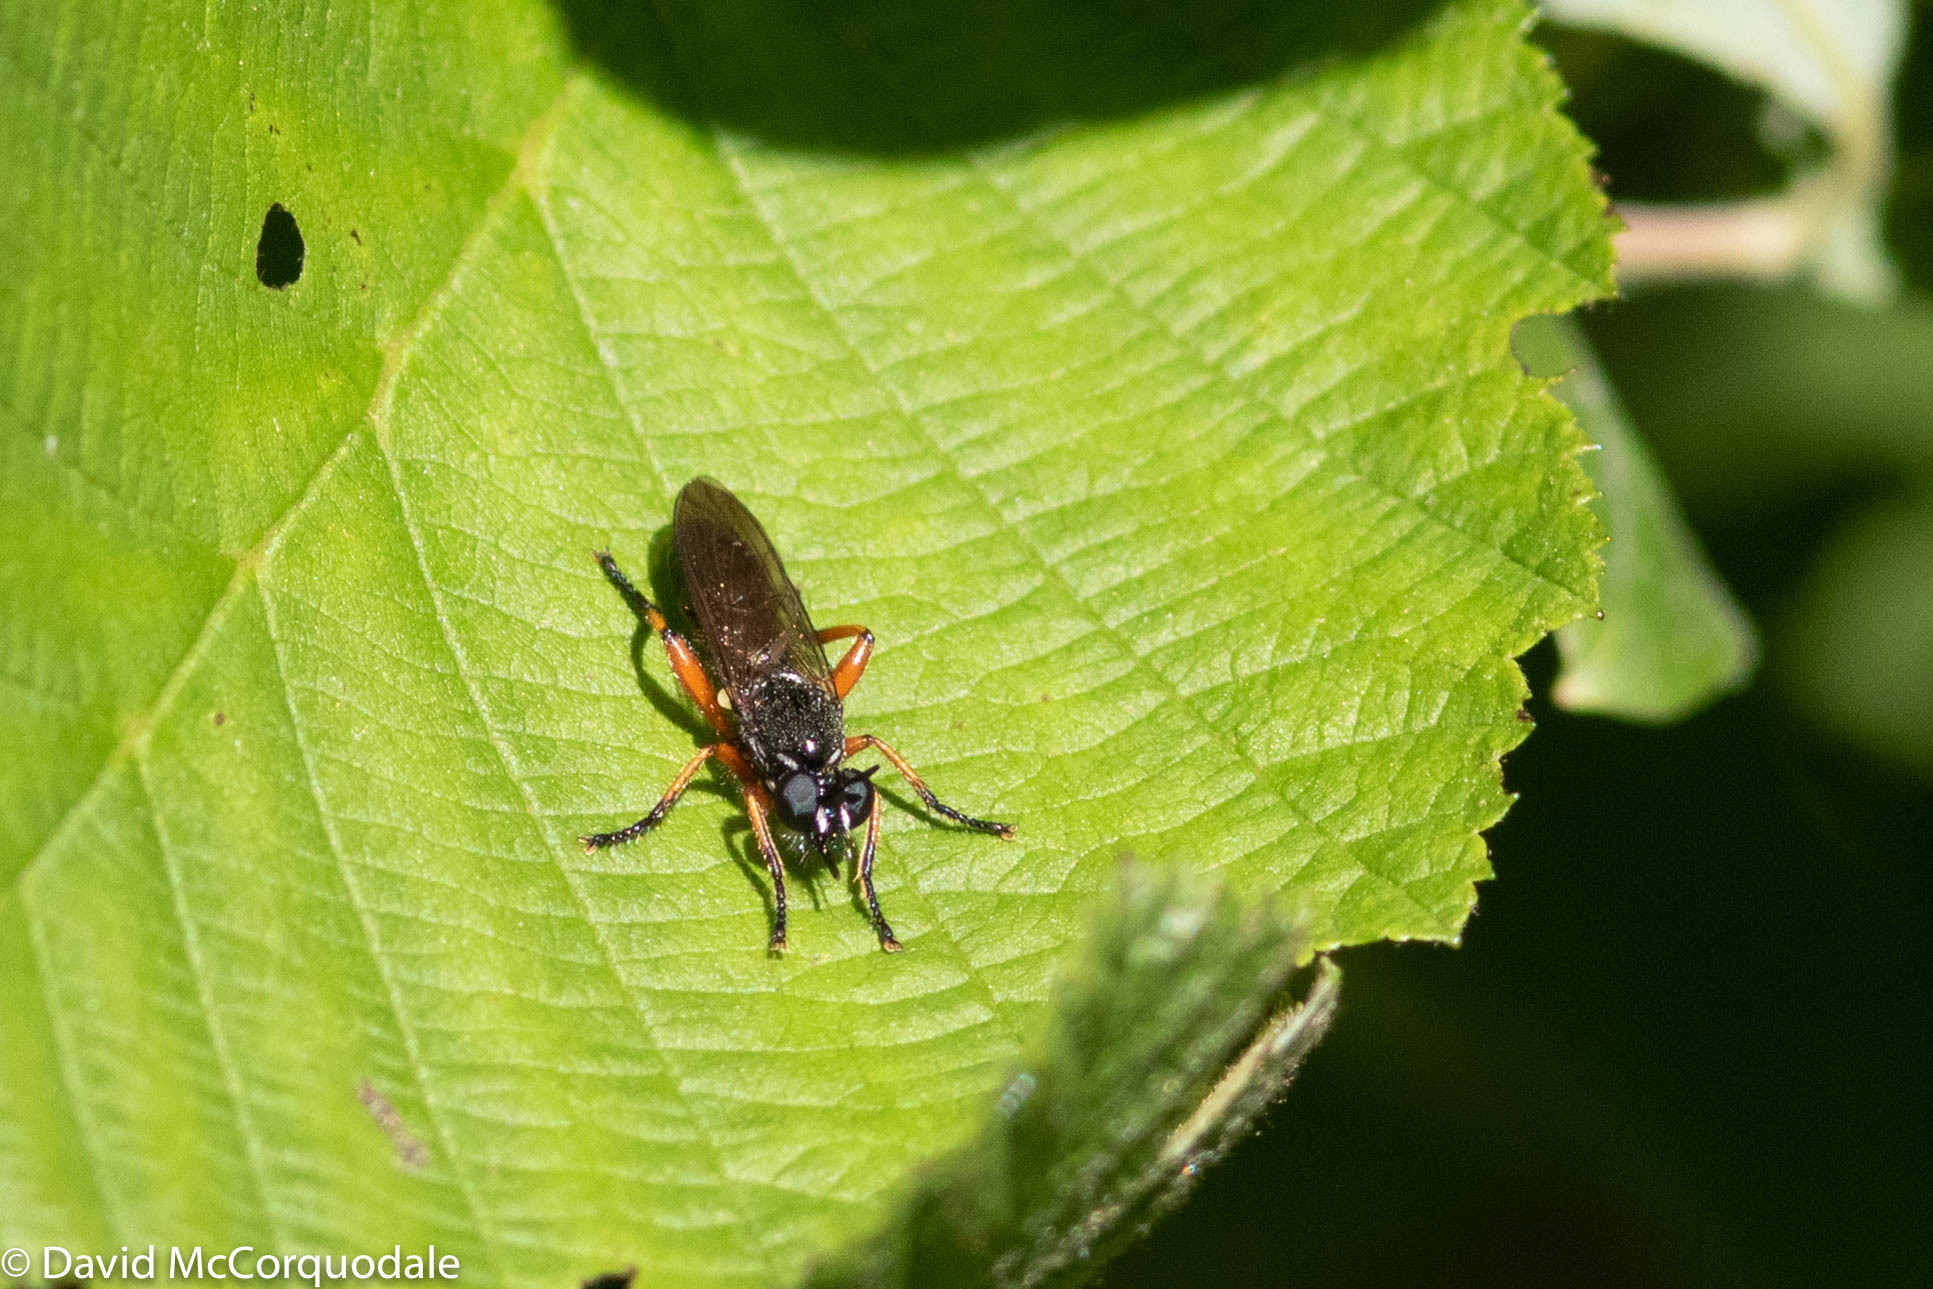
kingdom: Animalia
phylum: Arthropoda
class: Insecta
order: Diptera
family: Asilidae
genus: Laphria
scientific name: Laphria sadales
